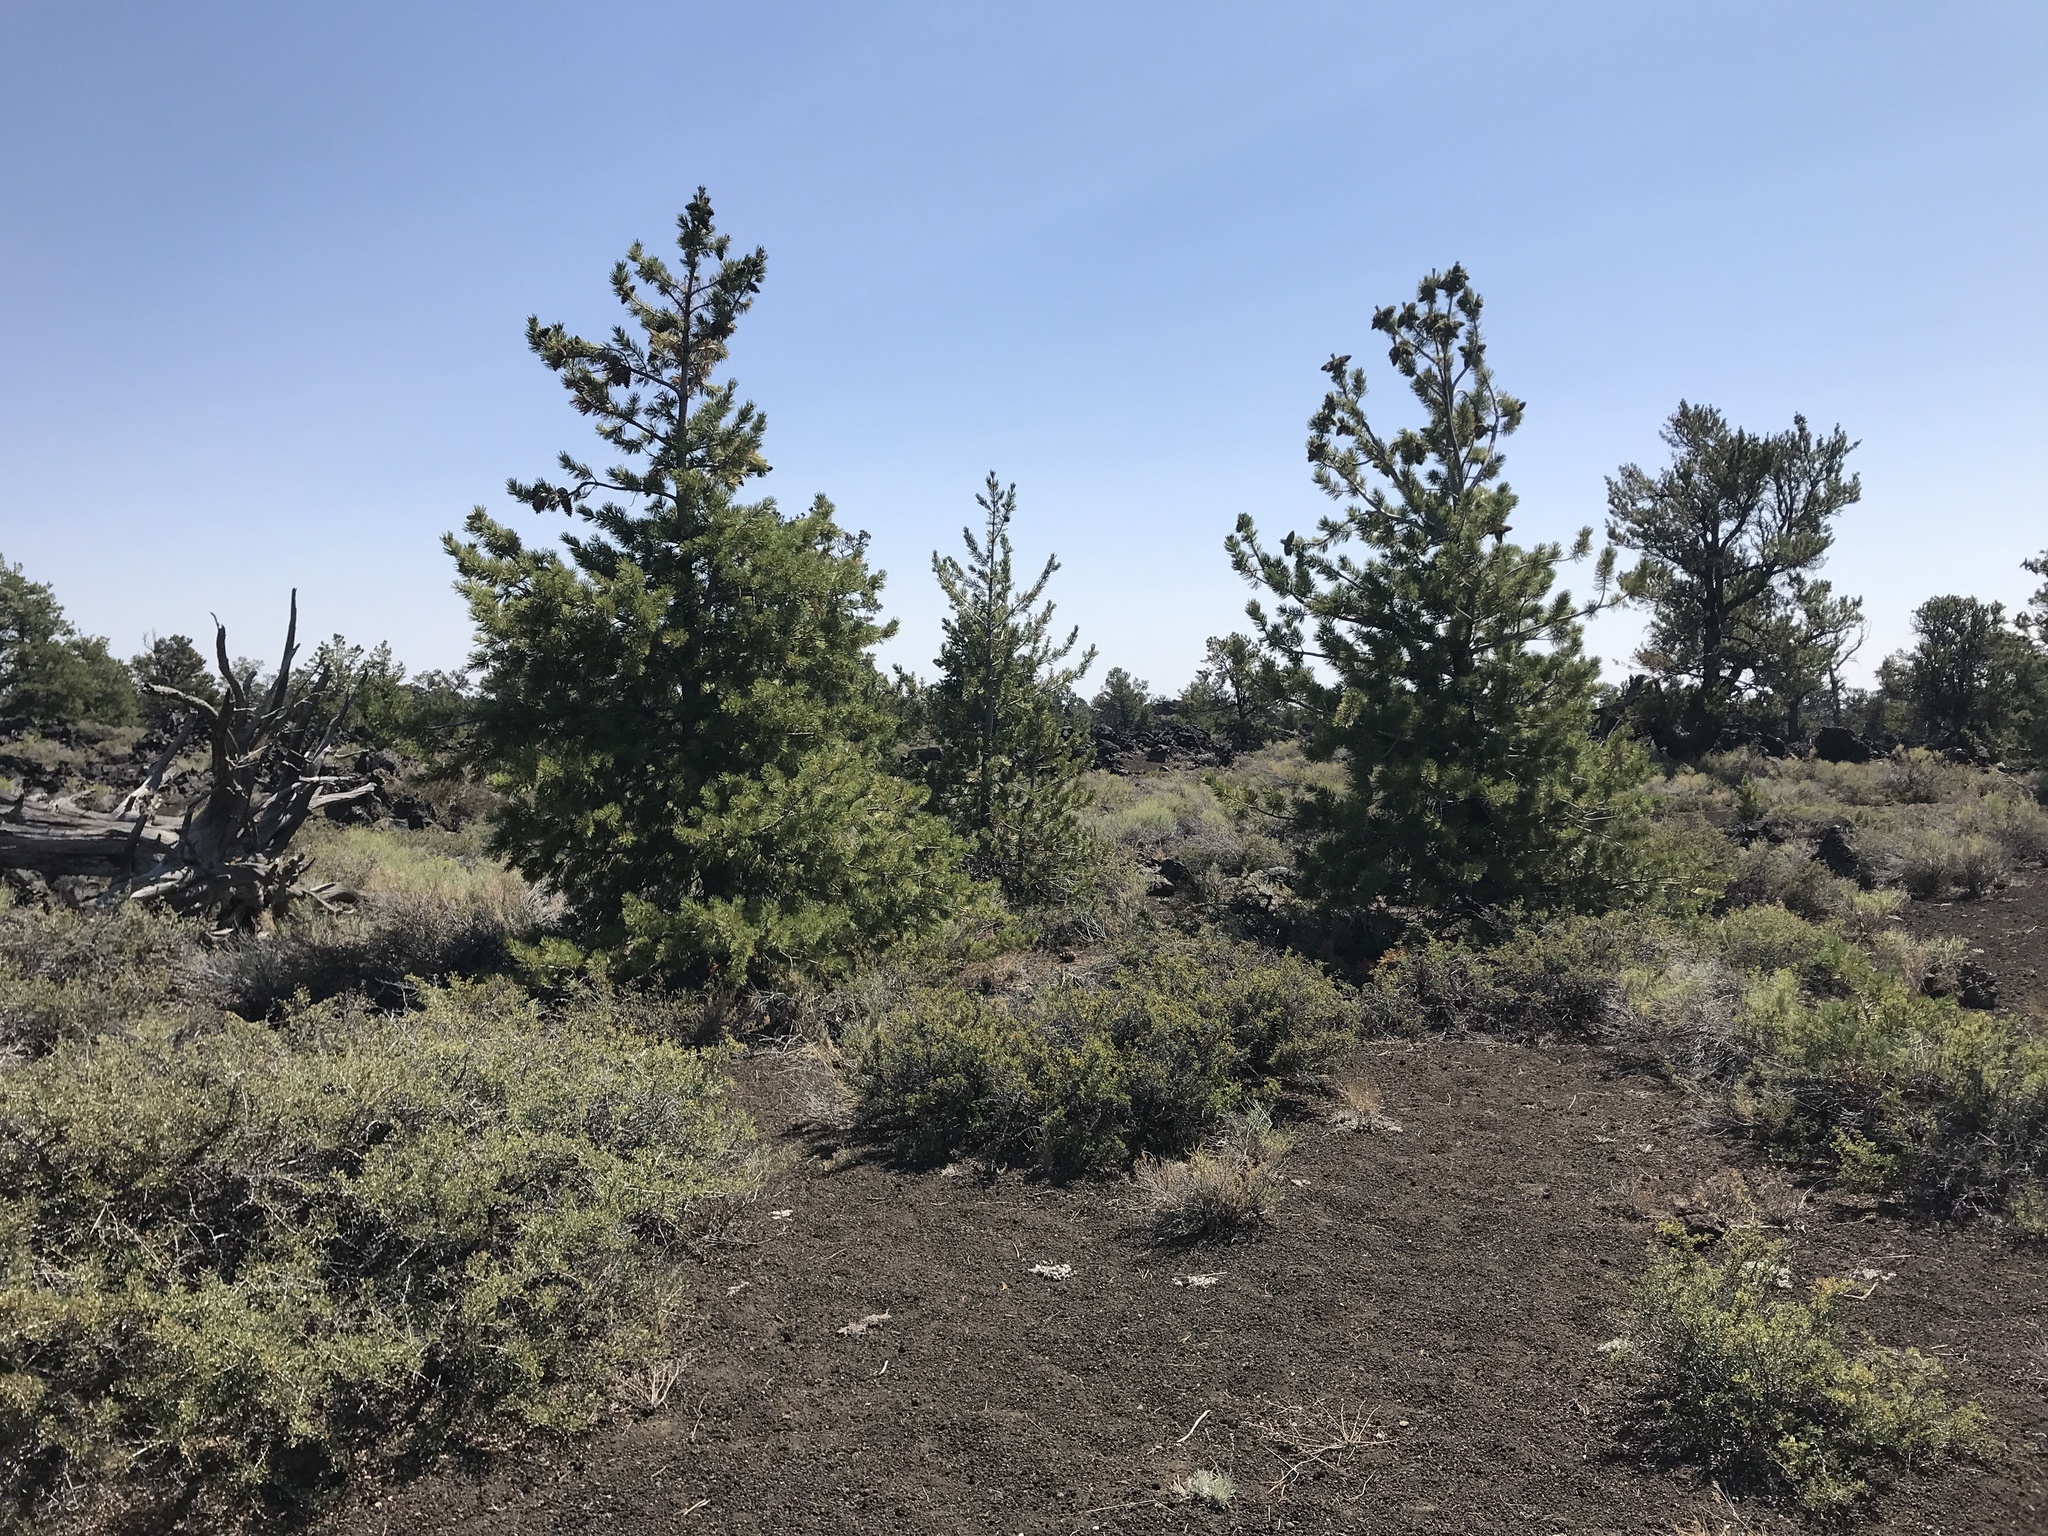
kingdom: Plantae
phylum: Tracheophyta
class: Pinopsida
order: Pinales
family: Pinaceae
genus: Pinus
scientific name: Pinus flexilis
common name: Limber pine
